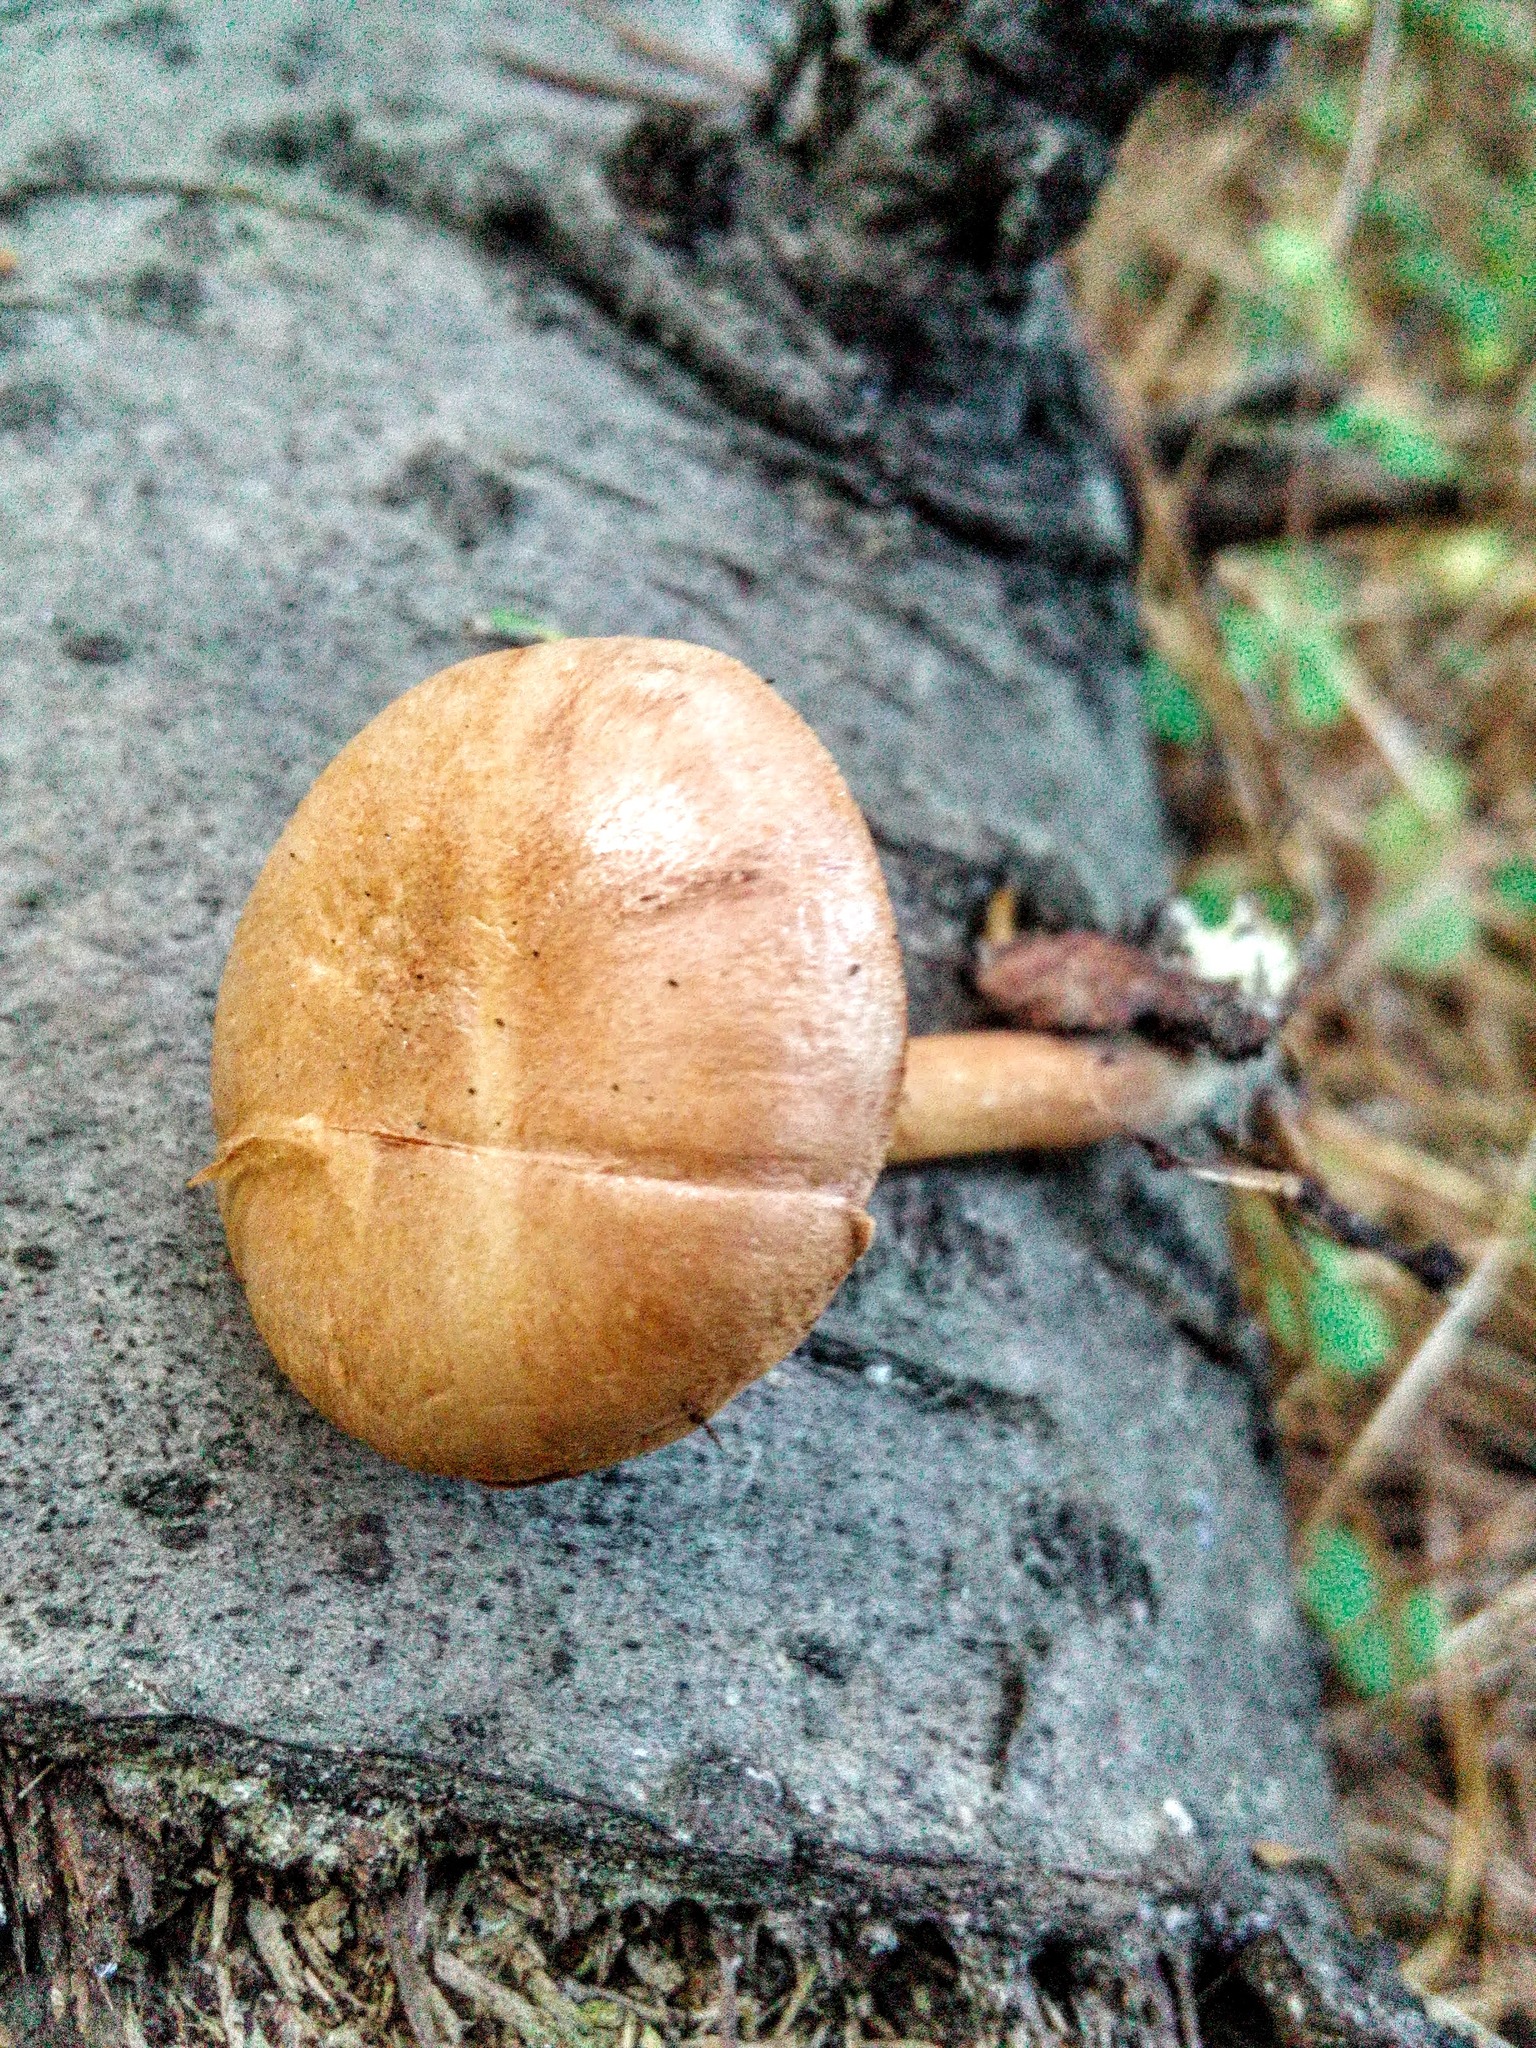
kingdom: Fungi
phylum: Basidiomycota
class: Agaricomycetes
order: Boletales
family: Boletaceae
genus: Chalciporus
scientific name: Chalciporus piperatus
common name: Peppery bolete
